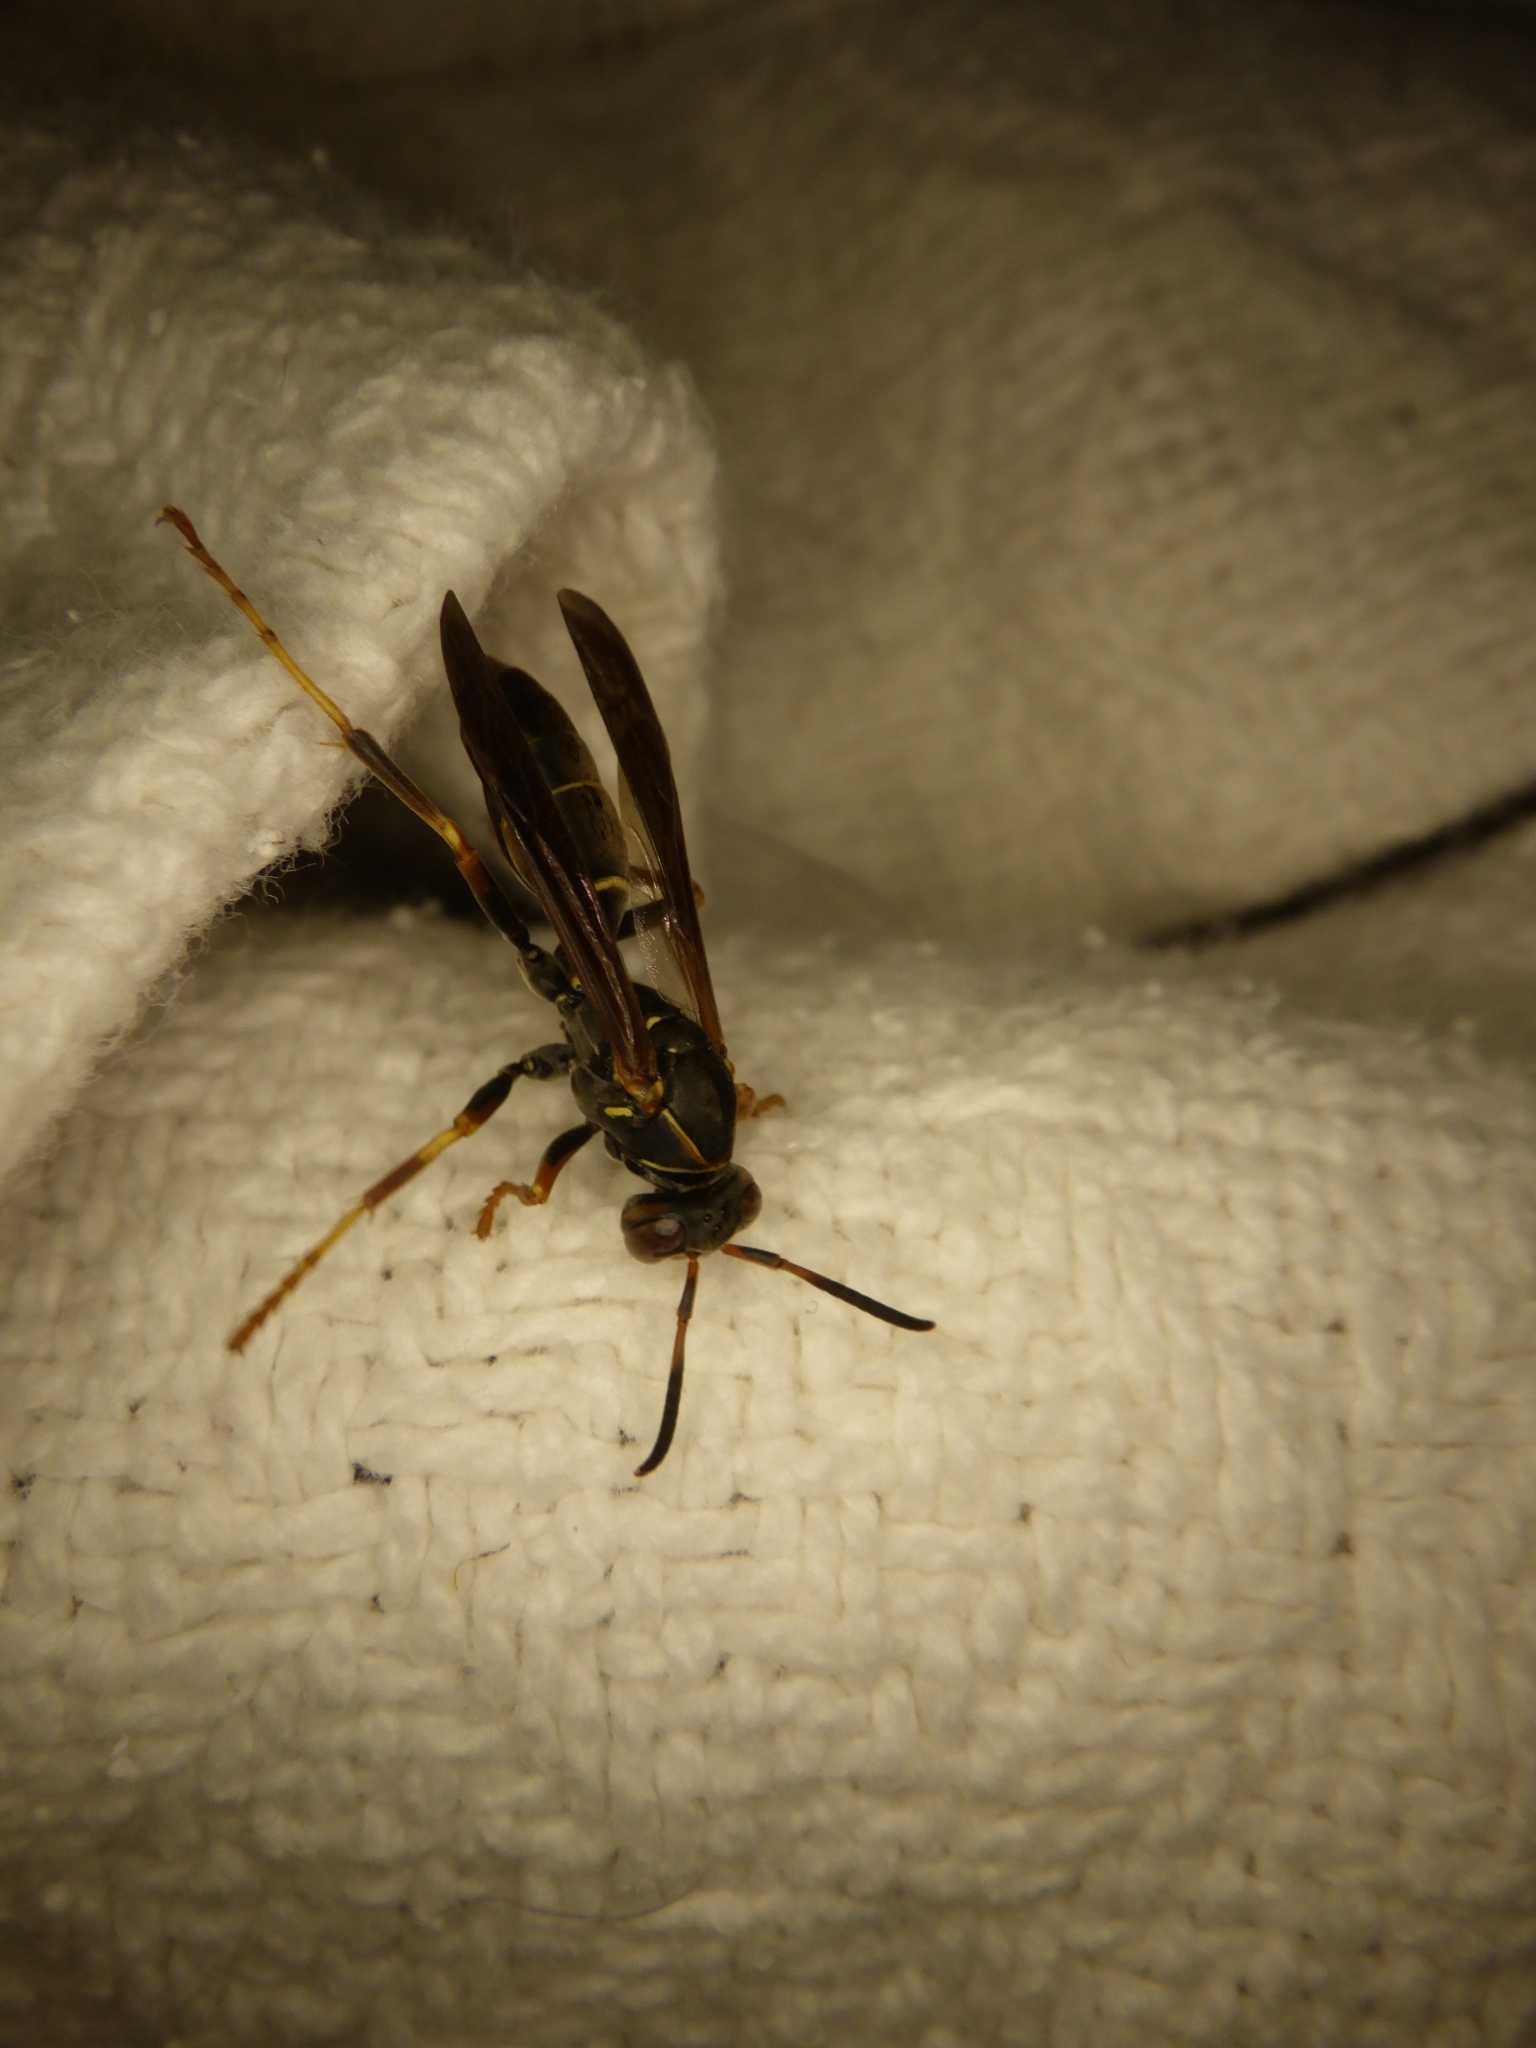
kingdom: Animalia
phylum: Arthropoda
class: Insecta
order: Hymenoptera
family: Eumenidae
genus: Polistes
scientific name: Polistes fuscatus
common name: Dark paper wasp
